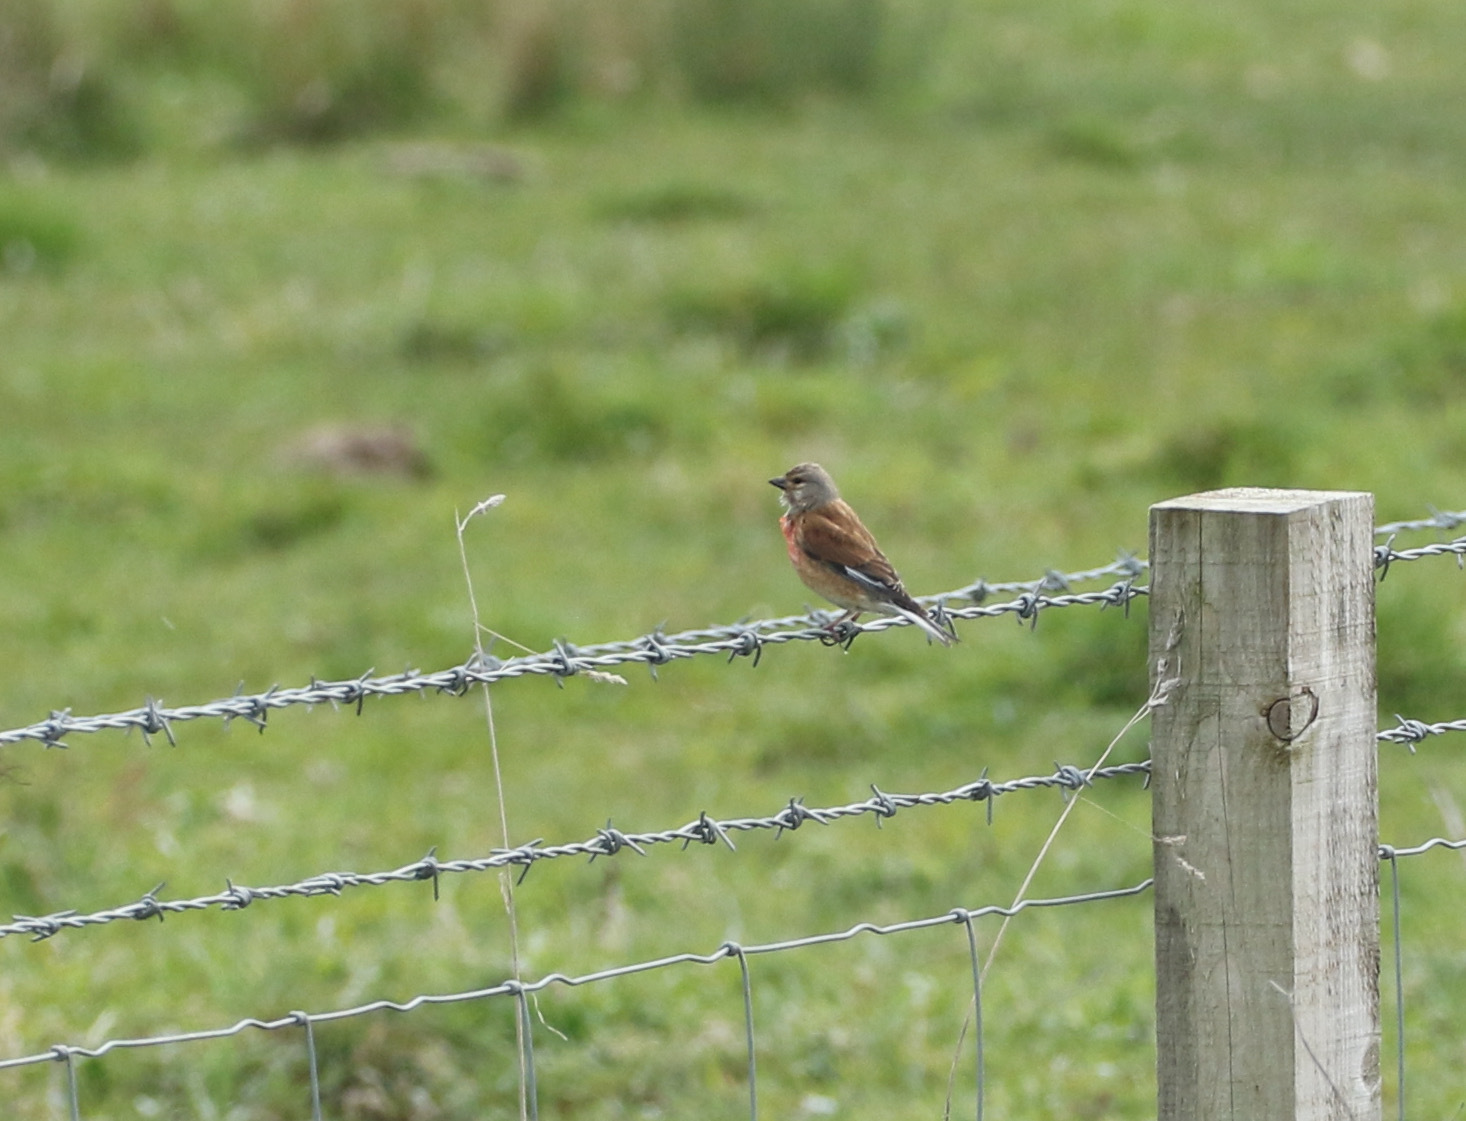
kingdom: Animalia
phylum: Chordata
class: Aves
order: Passeriformes
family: Fringillidae
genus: Linaria
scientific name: Linaria cannabina
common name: Common linnet
